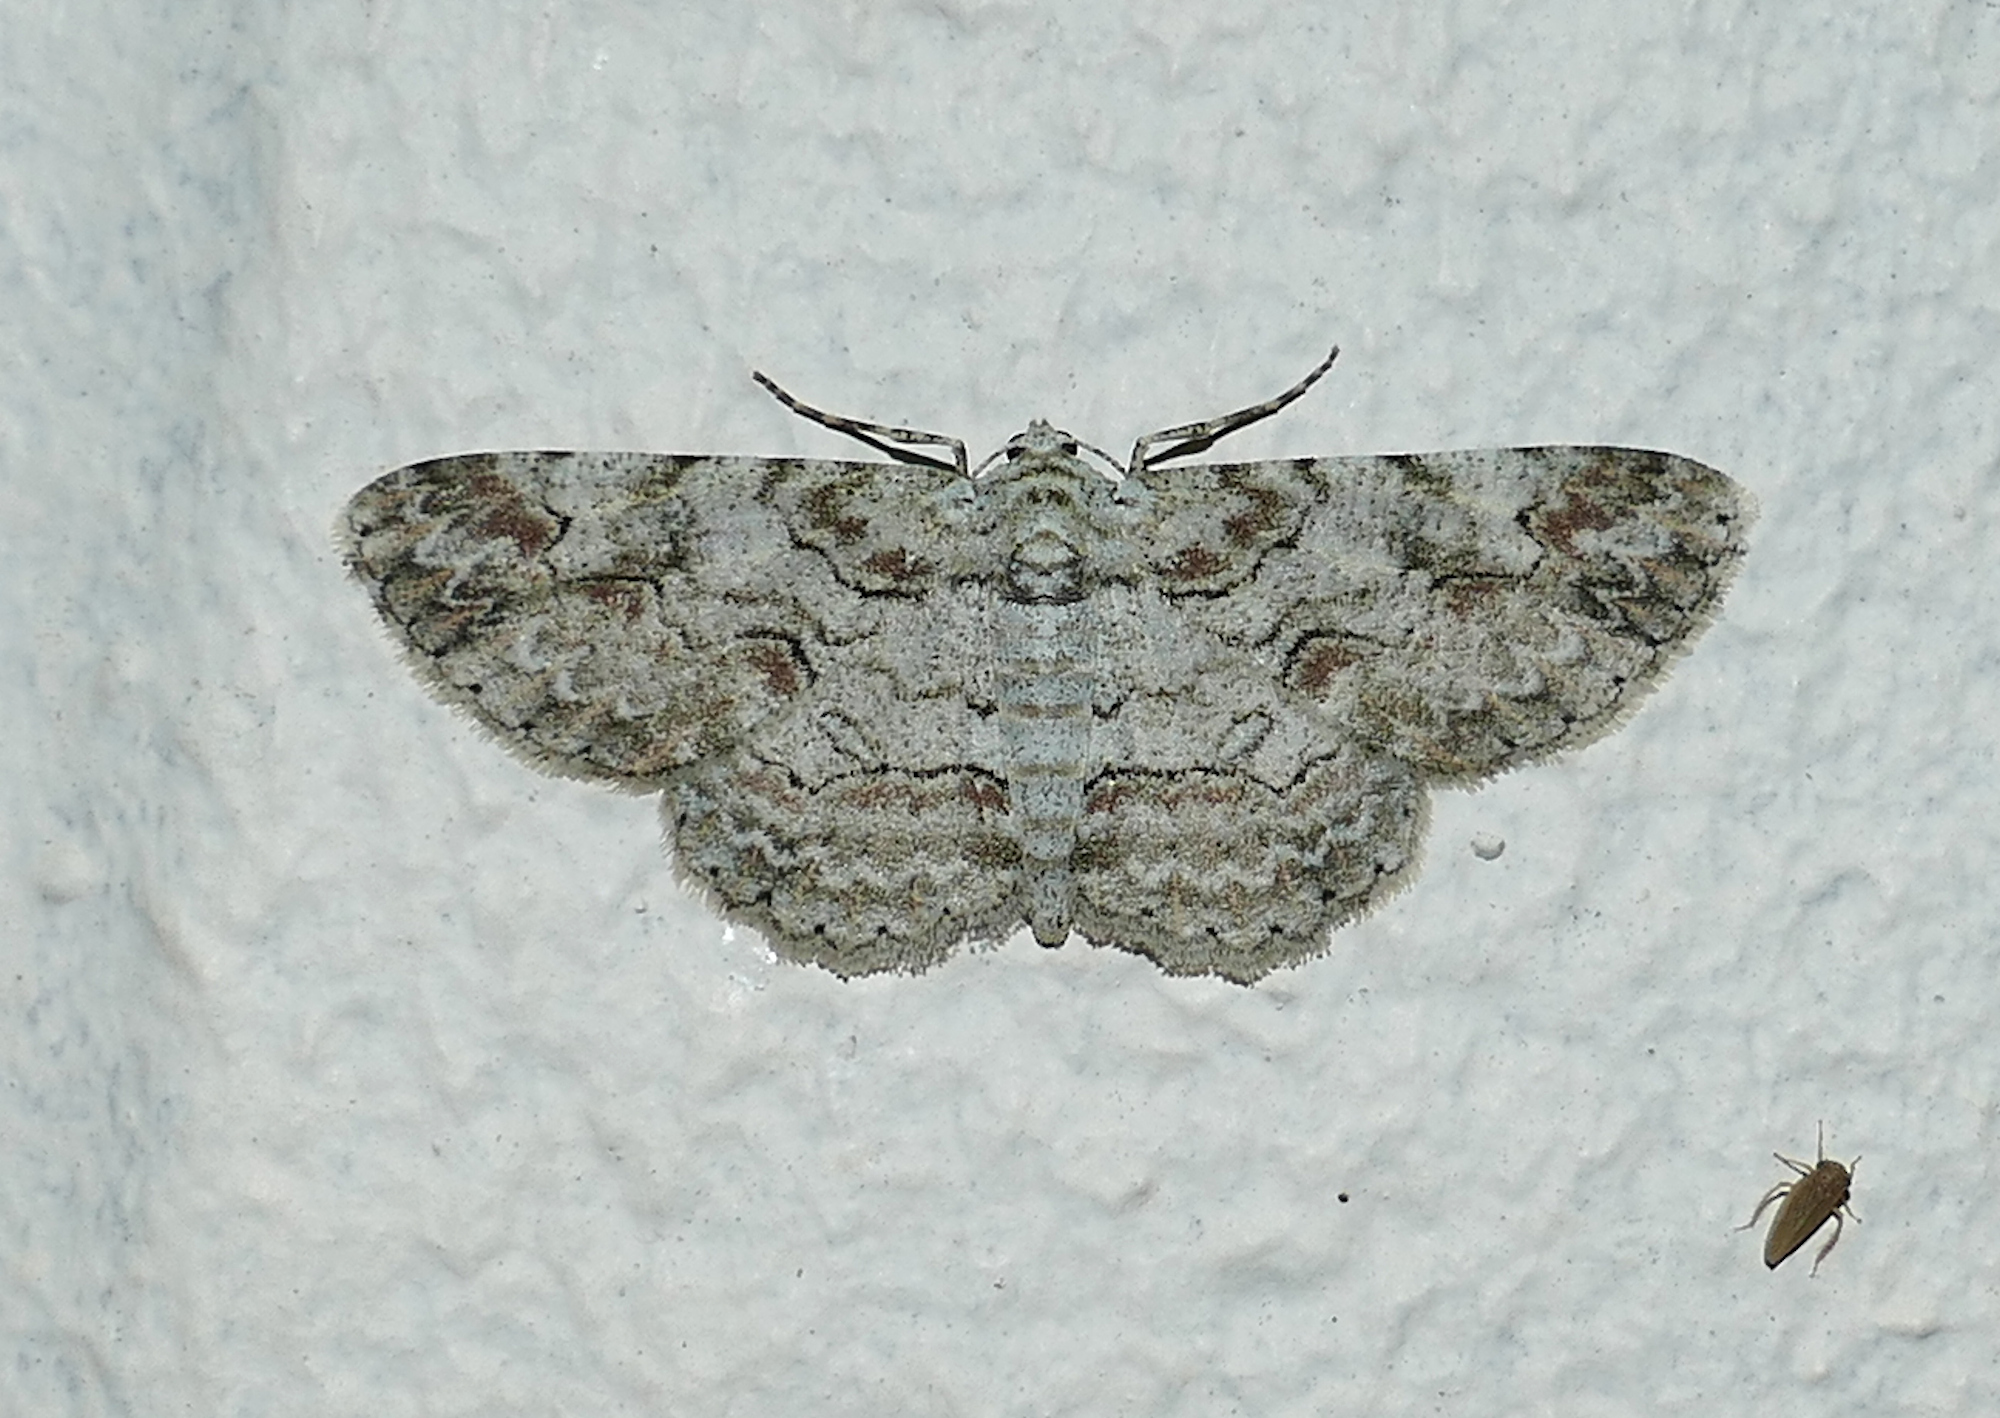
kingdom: Animalia
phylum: Arthropoda
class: Insecta
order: Lepidoptera
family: Geometridae
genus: Iridopsis
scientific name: Iridopsis defectaria
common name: Brown-shaded gray
